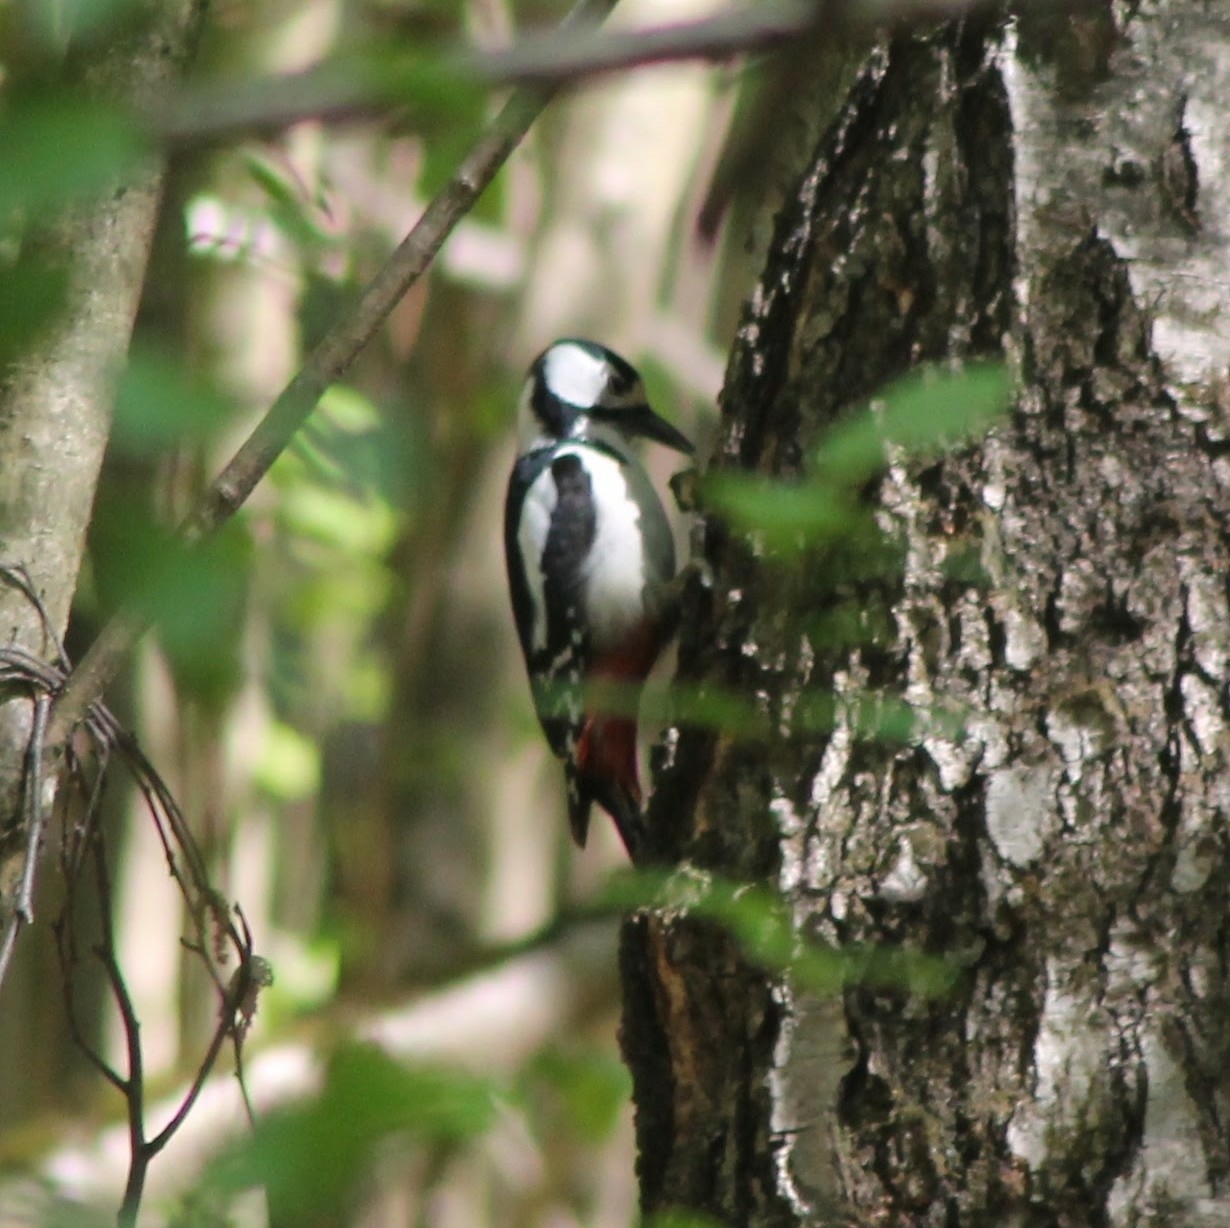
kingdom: Animalia
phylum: Chordata
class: Aves
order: Piciformes
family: Picidae
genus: Dendrocopos
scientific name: Dendrocopos major
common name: Great spotted woodpecker
